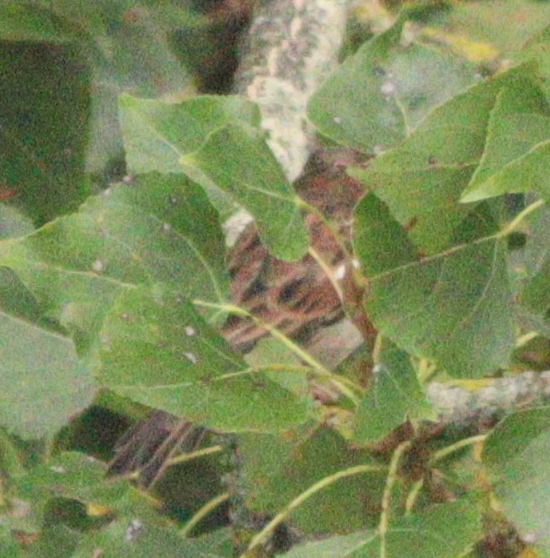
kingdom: Animalia
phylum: Chordata
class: Aves
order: Passeriformes
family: Passeridae
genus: Passer
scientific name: Passer domesticus
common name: House sparrow
